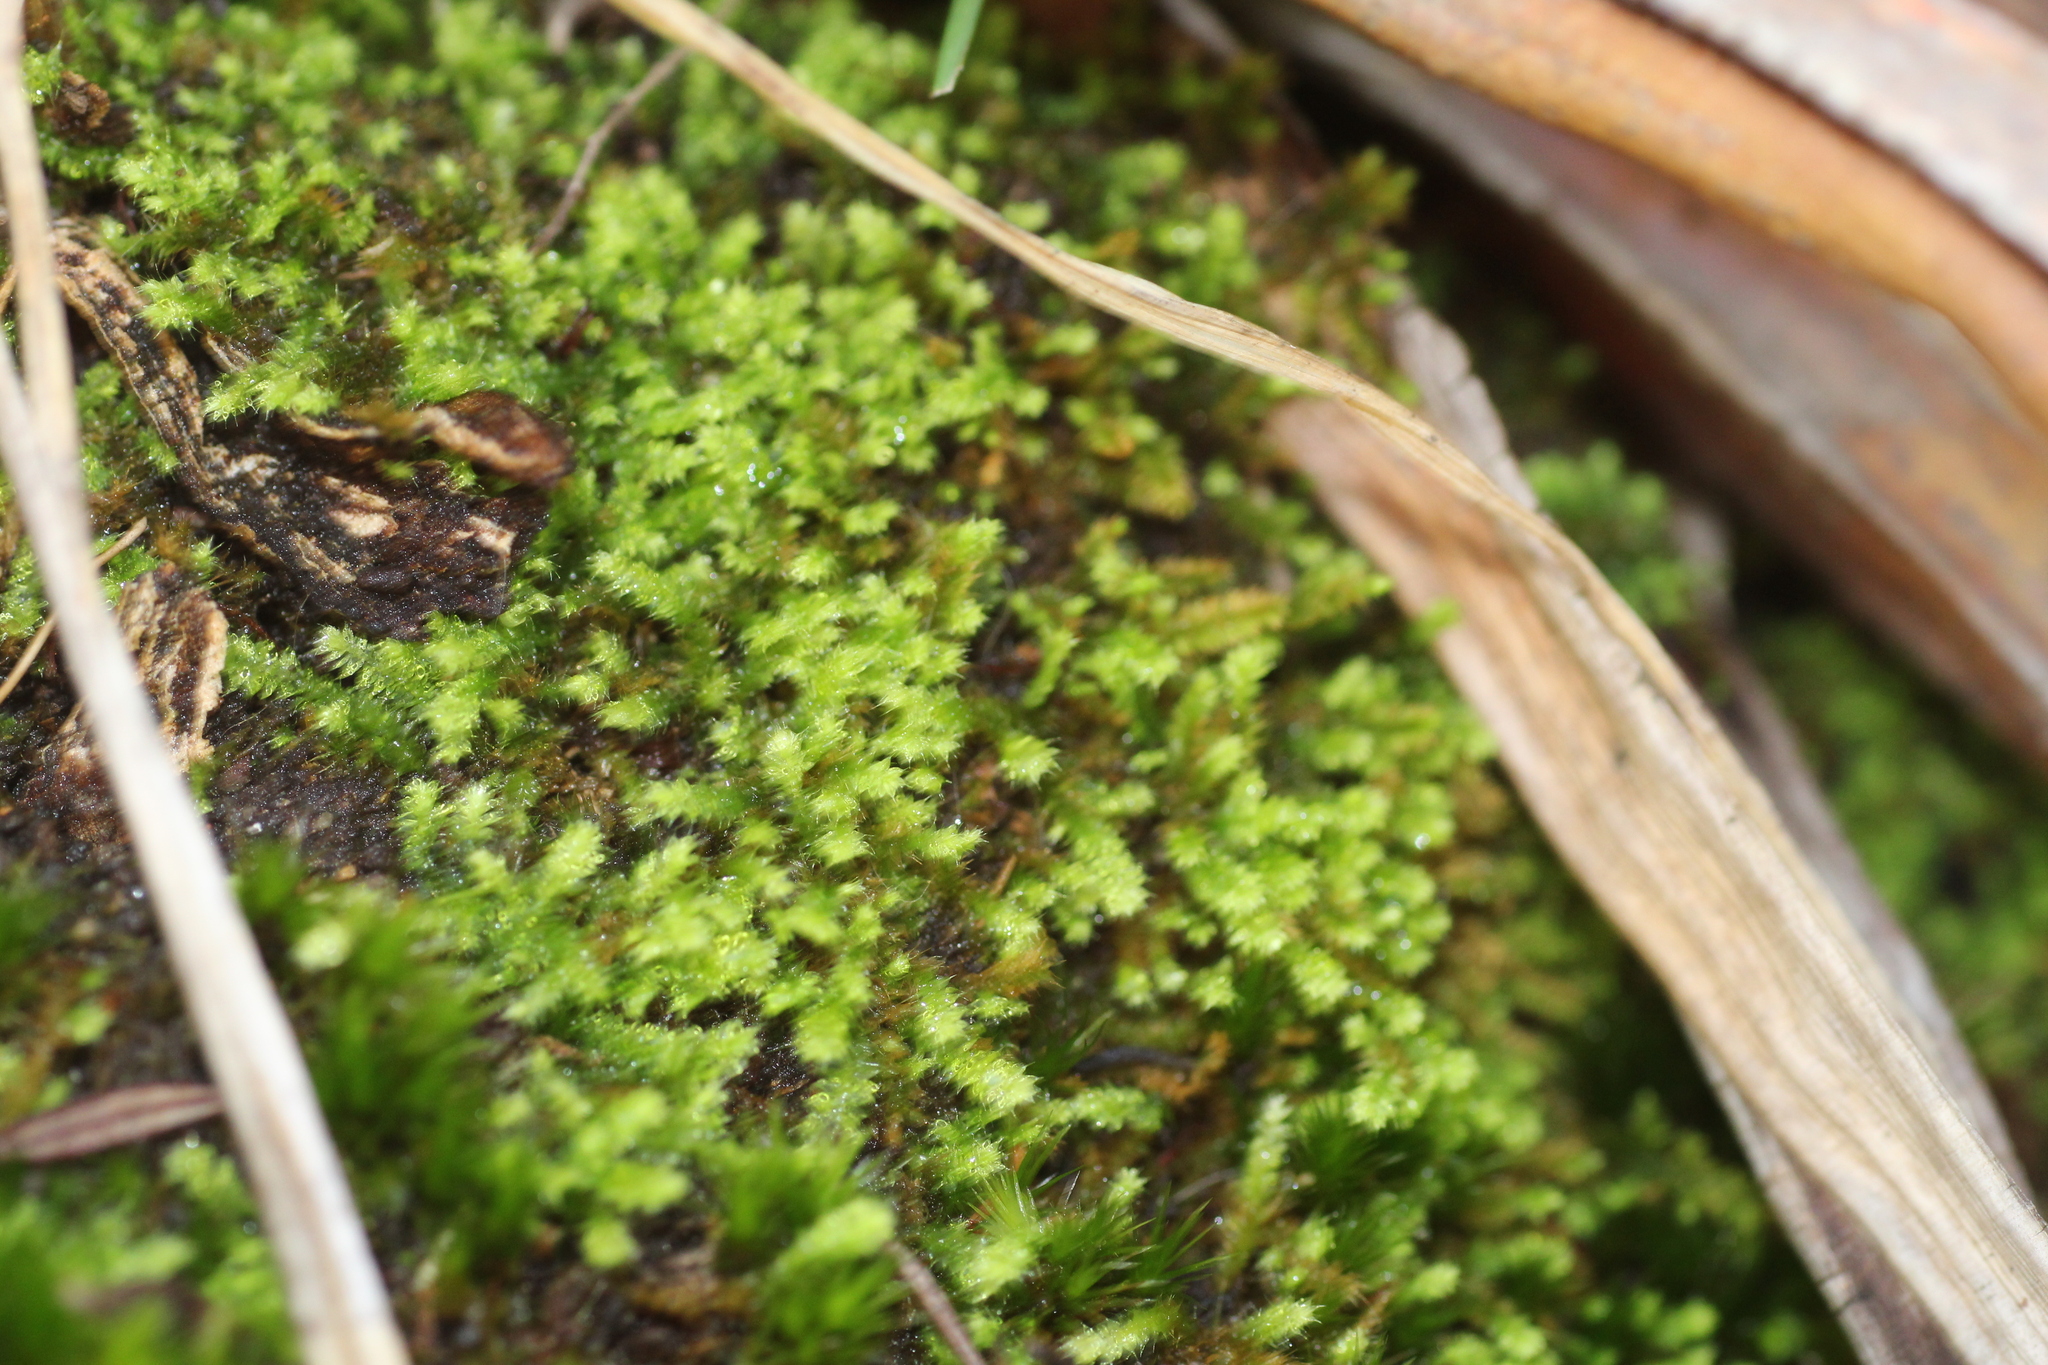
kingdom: Plantae
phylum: Bryophyta
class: Bryopsida
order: Hypnodendrales
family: Racopilaceae
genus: Racopilum
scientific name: Racopilum cuspidigerum
